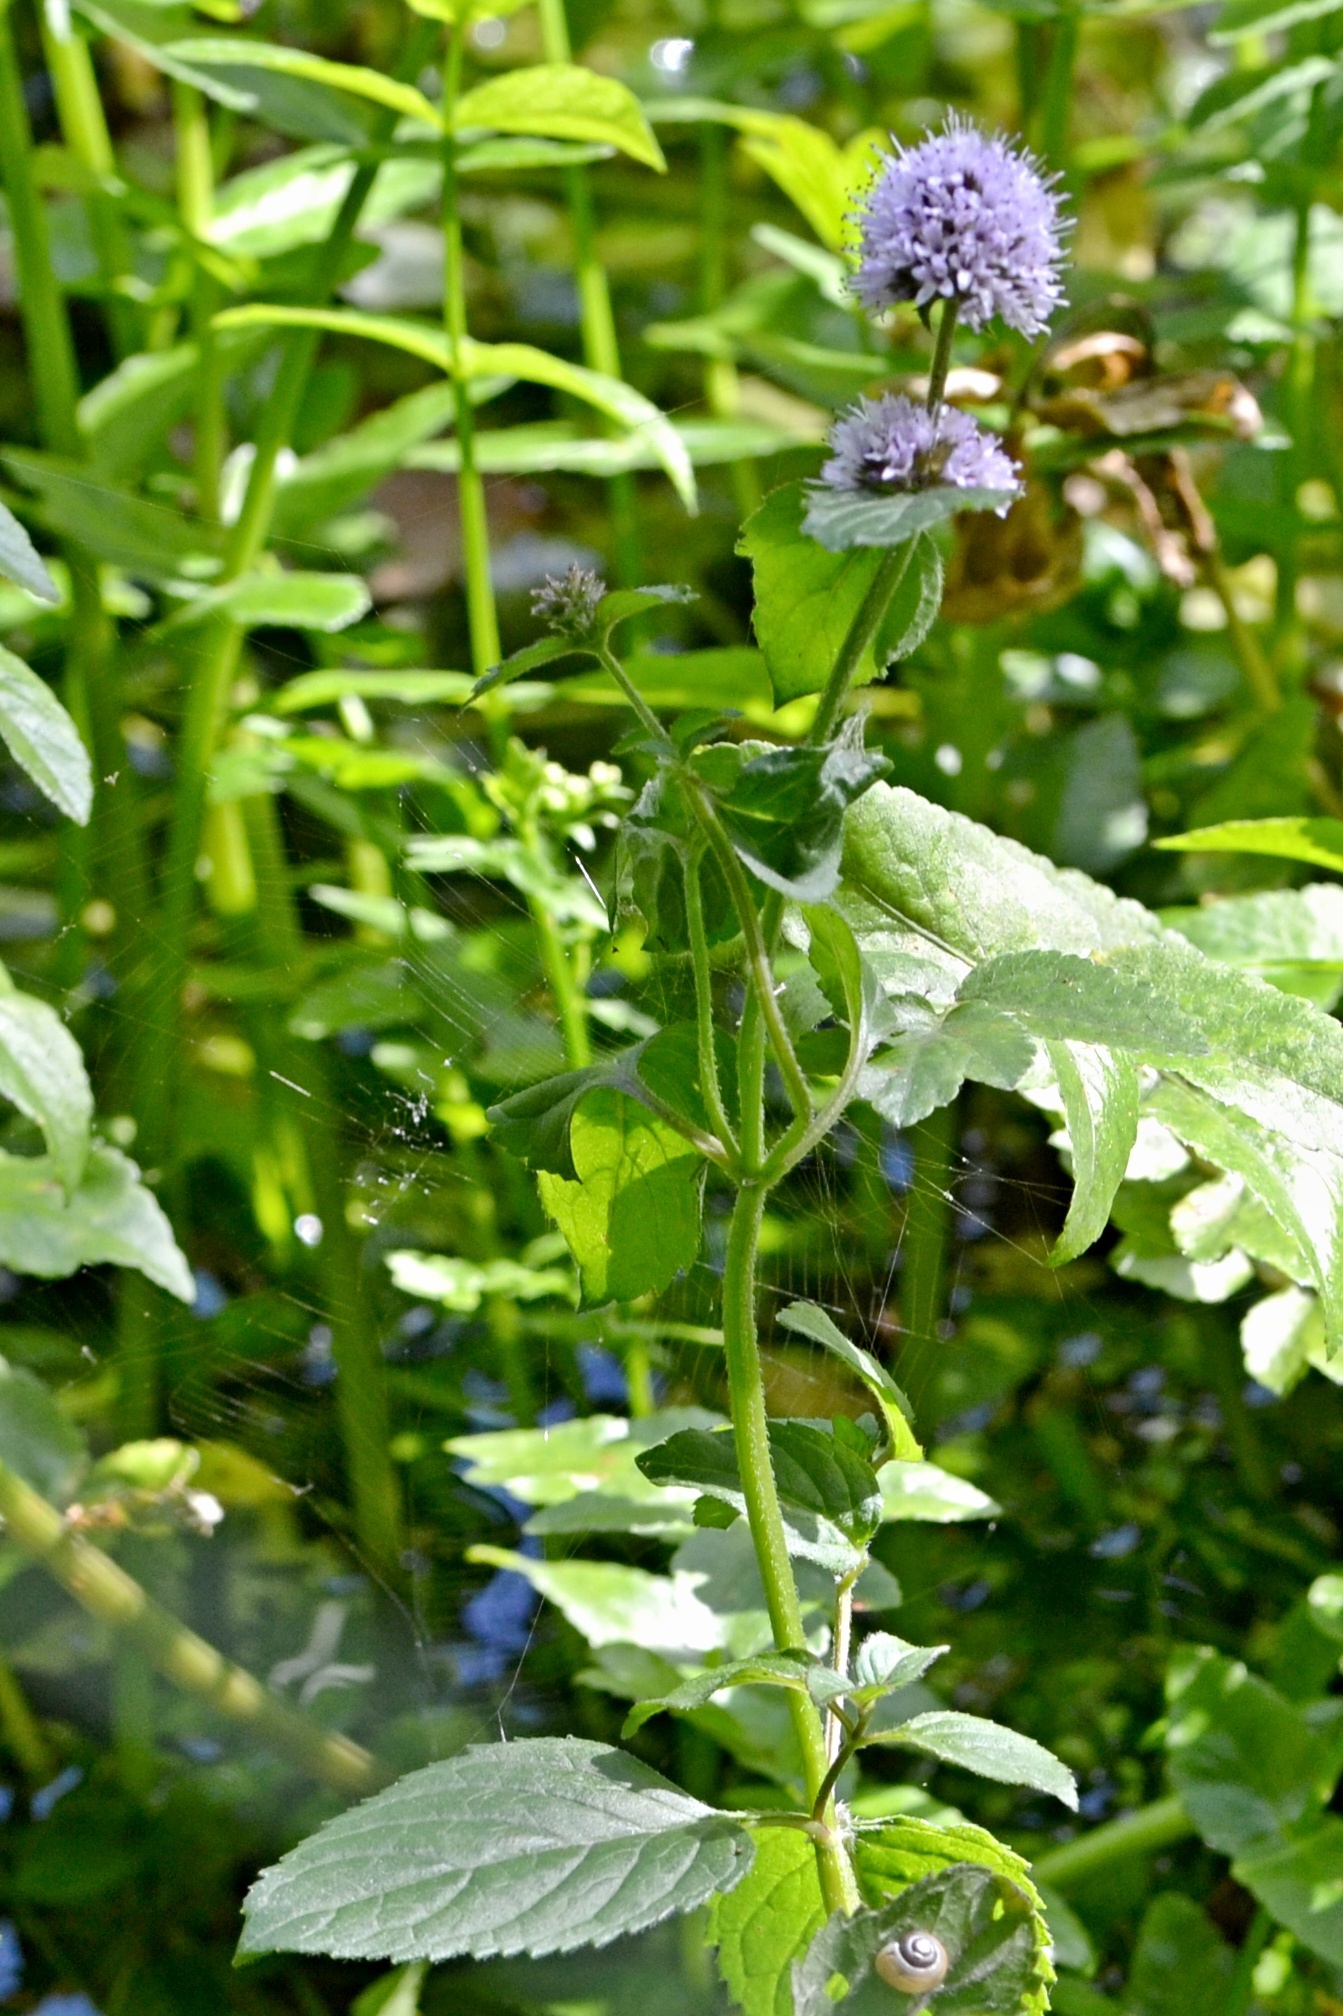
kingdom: Plantae
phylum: Tracheophyta
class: Magnoliopsida
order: Lamiales
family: Lamiaceae
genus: Mentha
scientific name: Mentha aquatica
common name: Water mint
